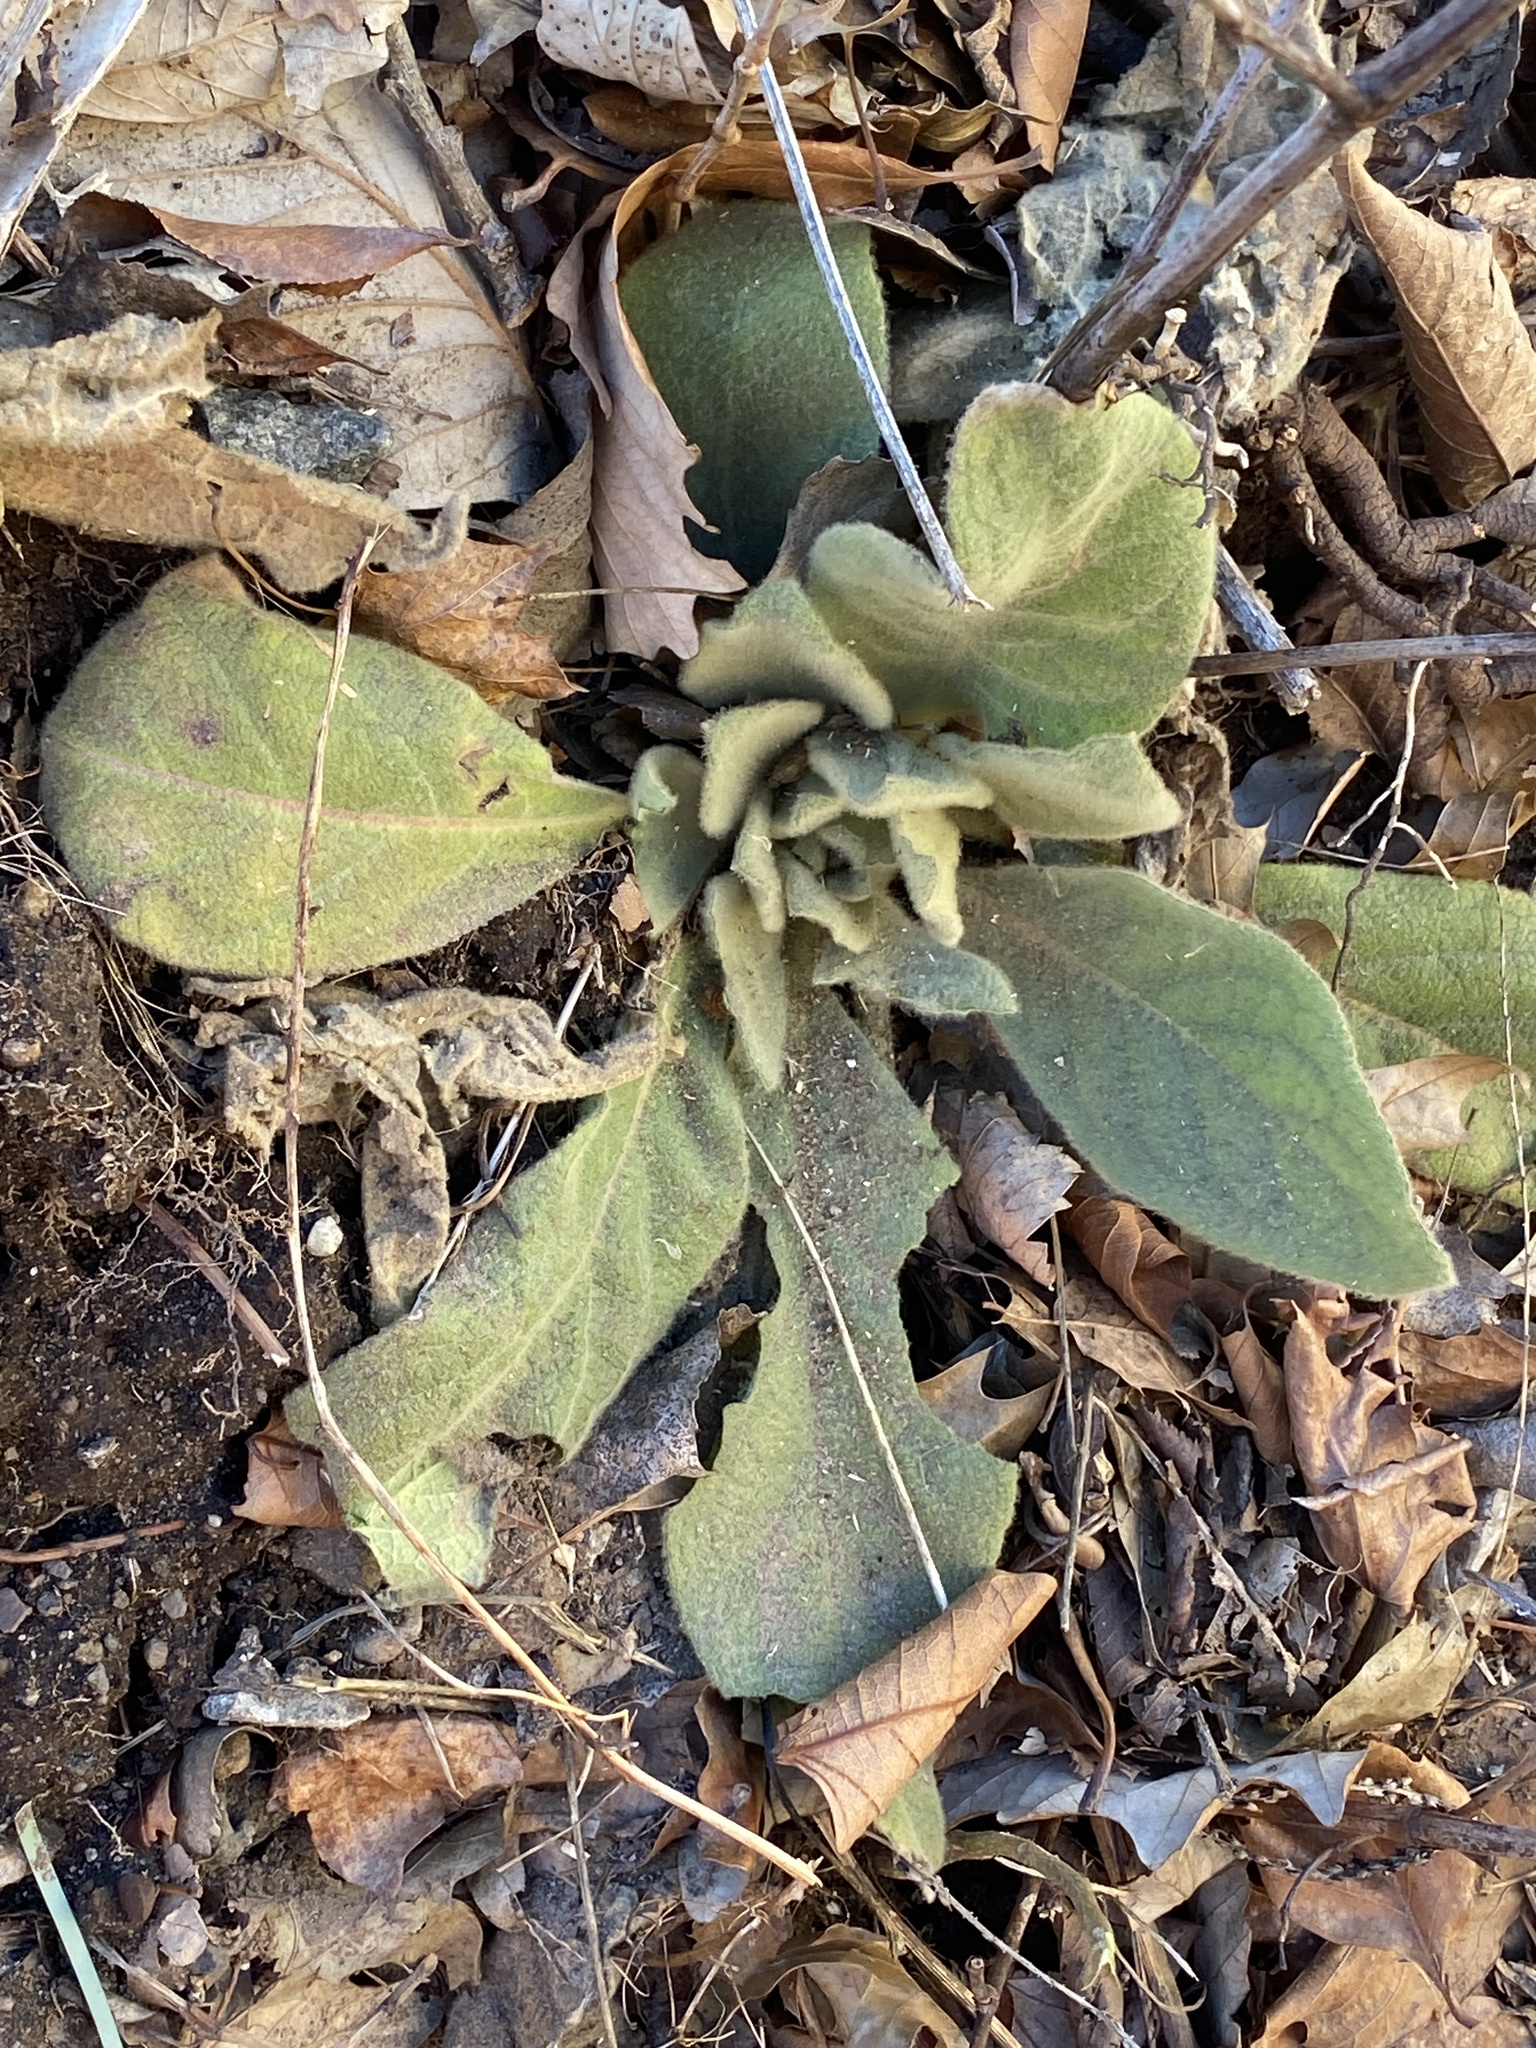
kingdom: Plantae
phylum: Tracheophyta
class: Magnoliopsida
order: Lamiales
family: Scrophulariaceae
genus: Verbascum
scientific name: Verbascum thapsus
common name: Common mullein
